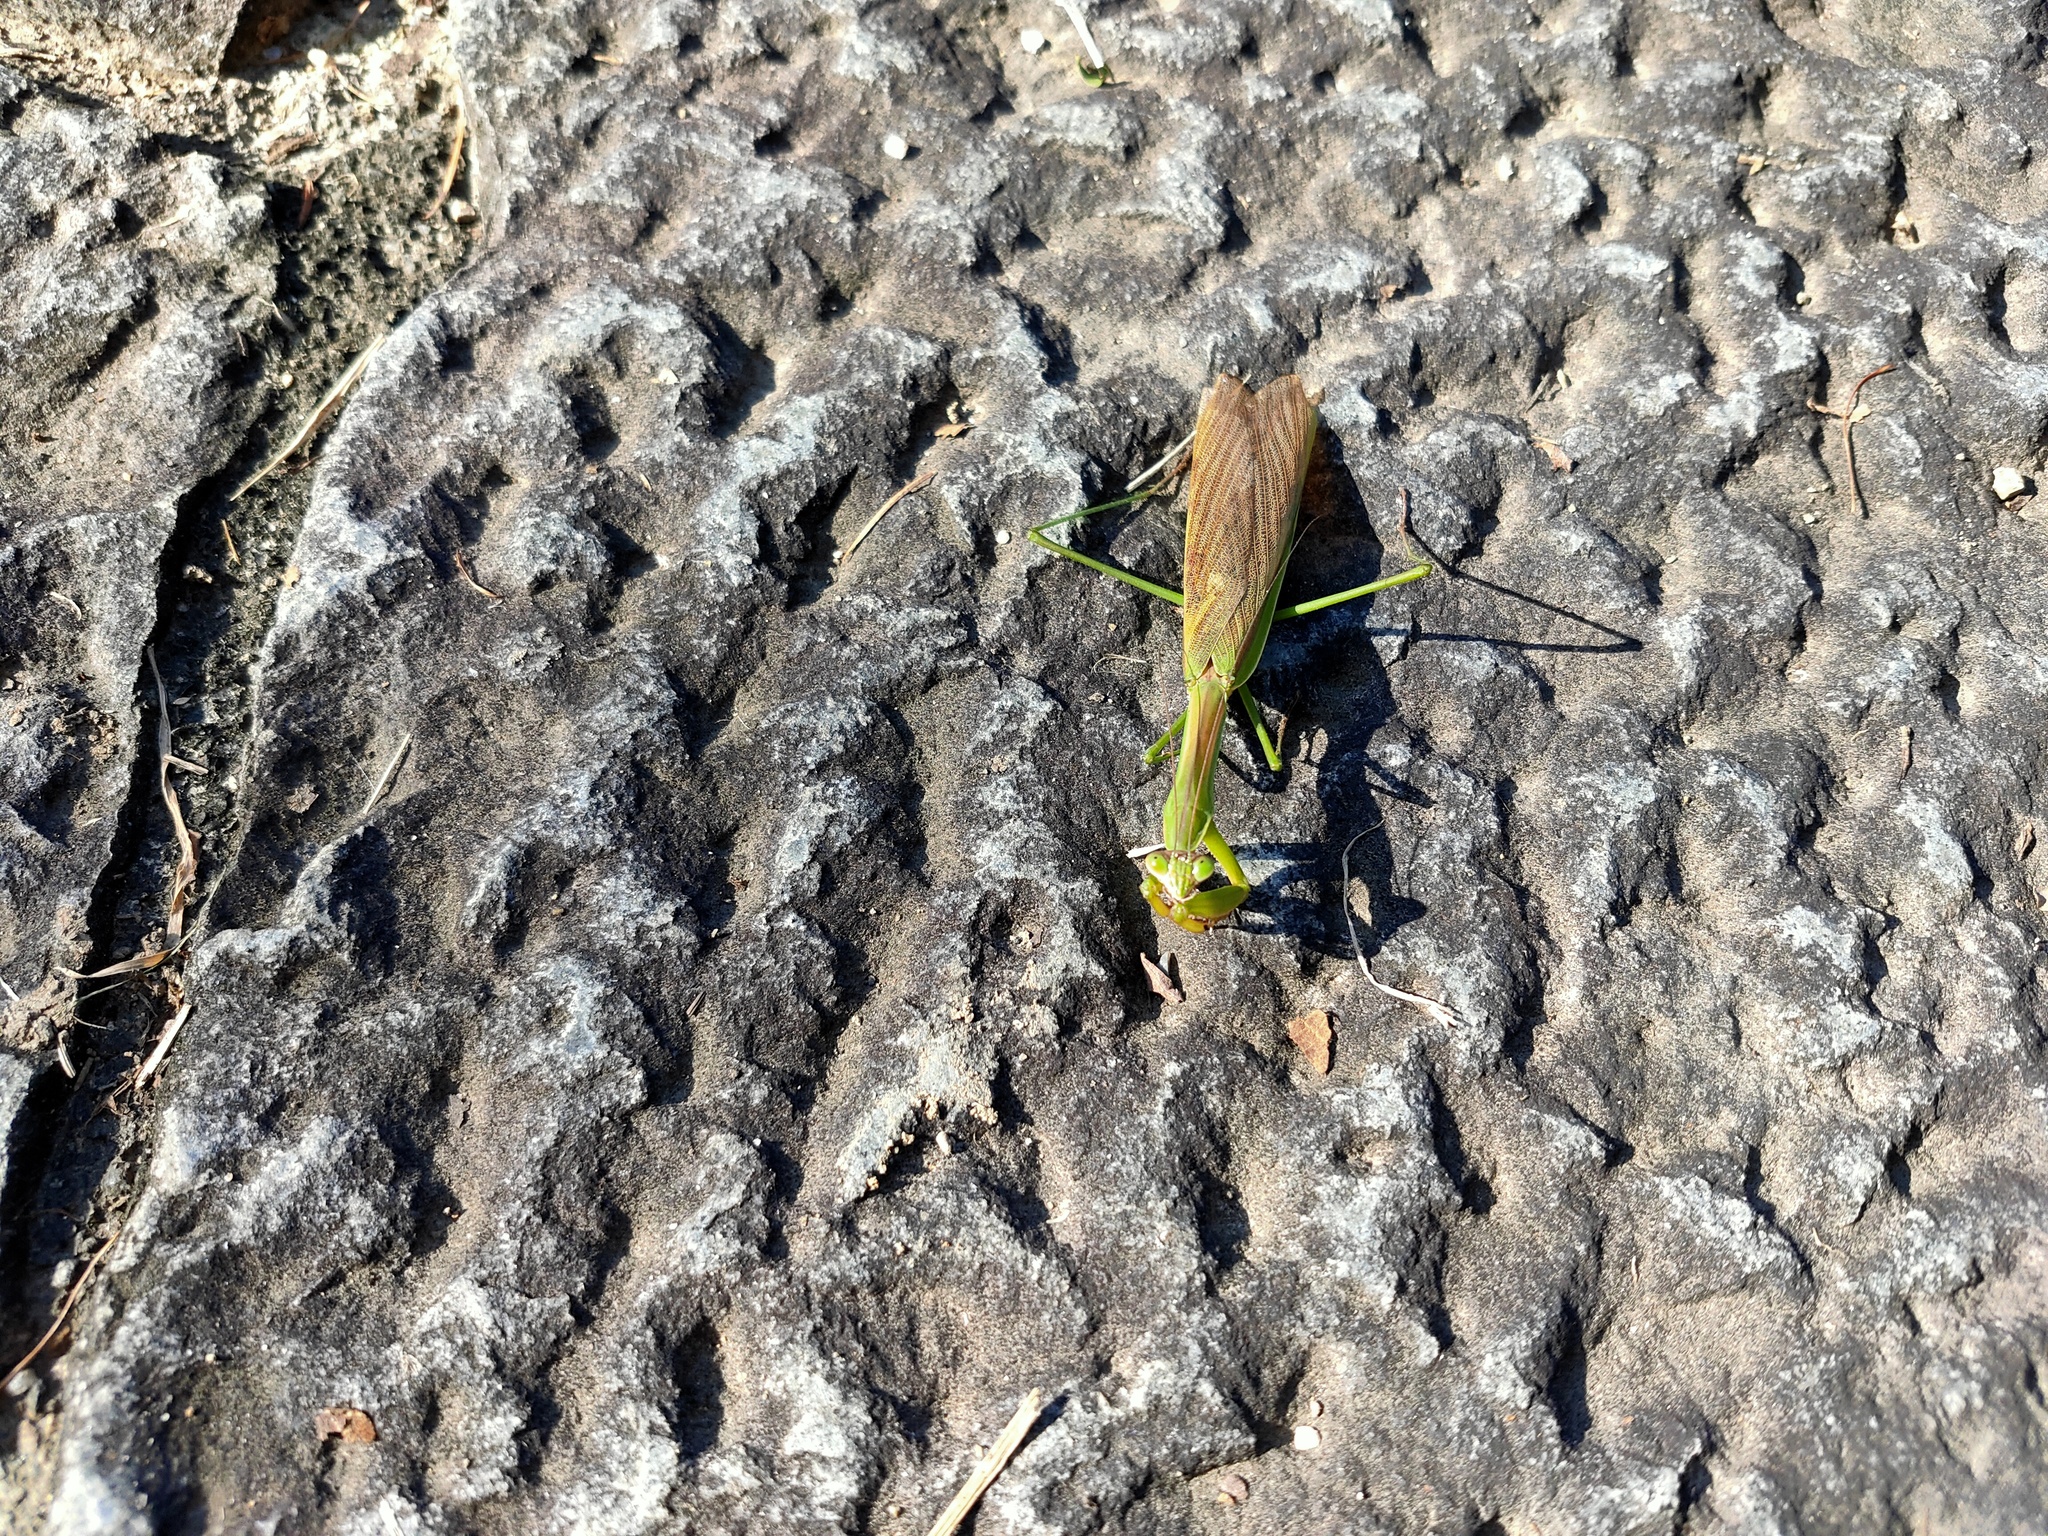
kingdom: Animalia
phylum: Arthropoda
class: Insecta
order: Mantodea
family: Mantidae
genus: Tenodera
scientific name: Tenodera sinensis
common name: Chinese mantis
